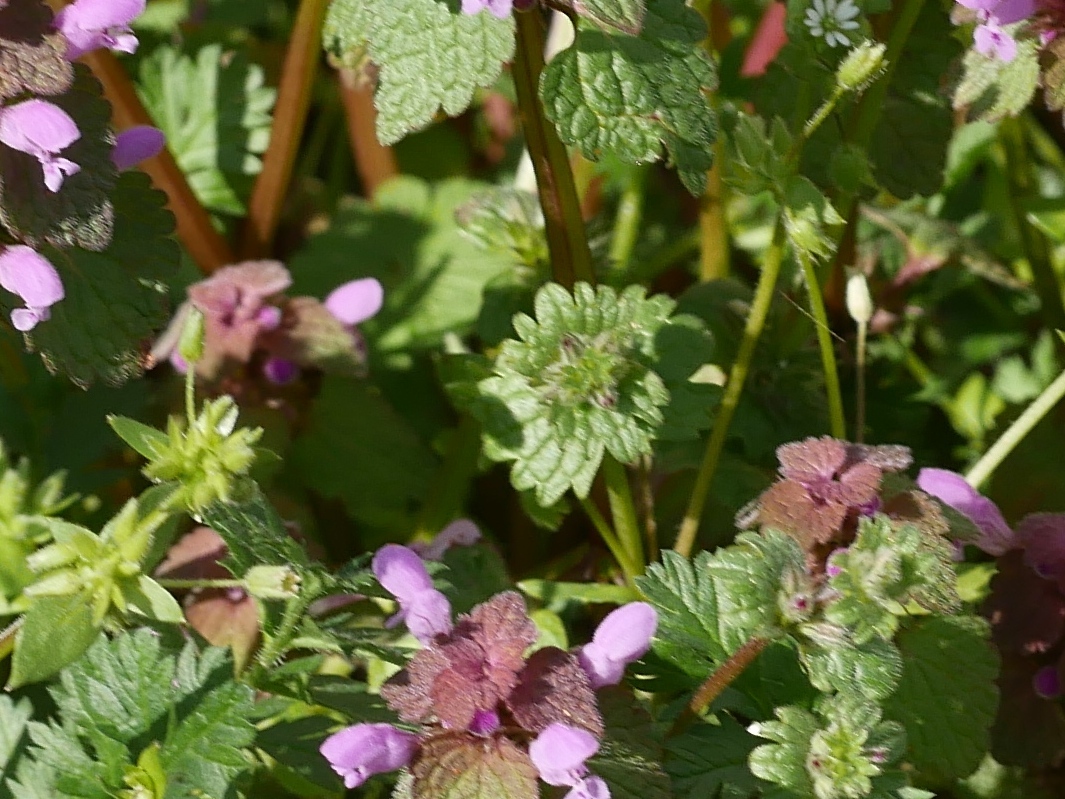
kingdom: Plantae
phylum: Tracheophyta
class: Magnoliopsida
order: Lamiales
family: Lamiaceae
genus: Lamium
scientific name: Lamium amplexicaule
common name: Henbit dead-nettle
